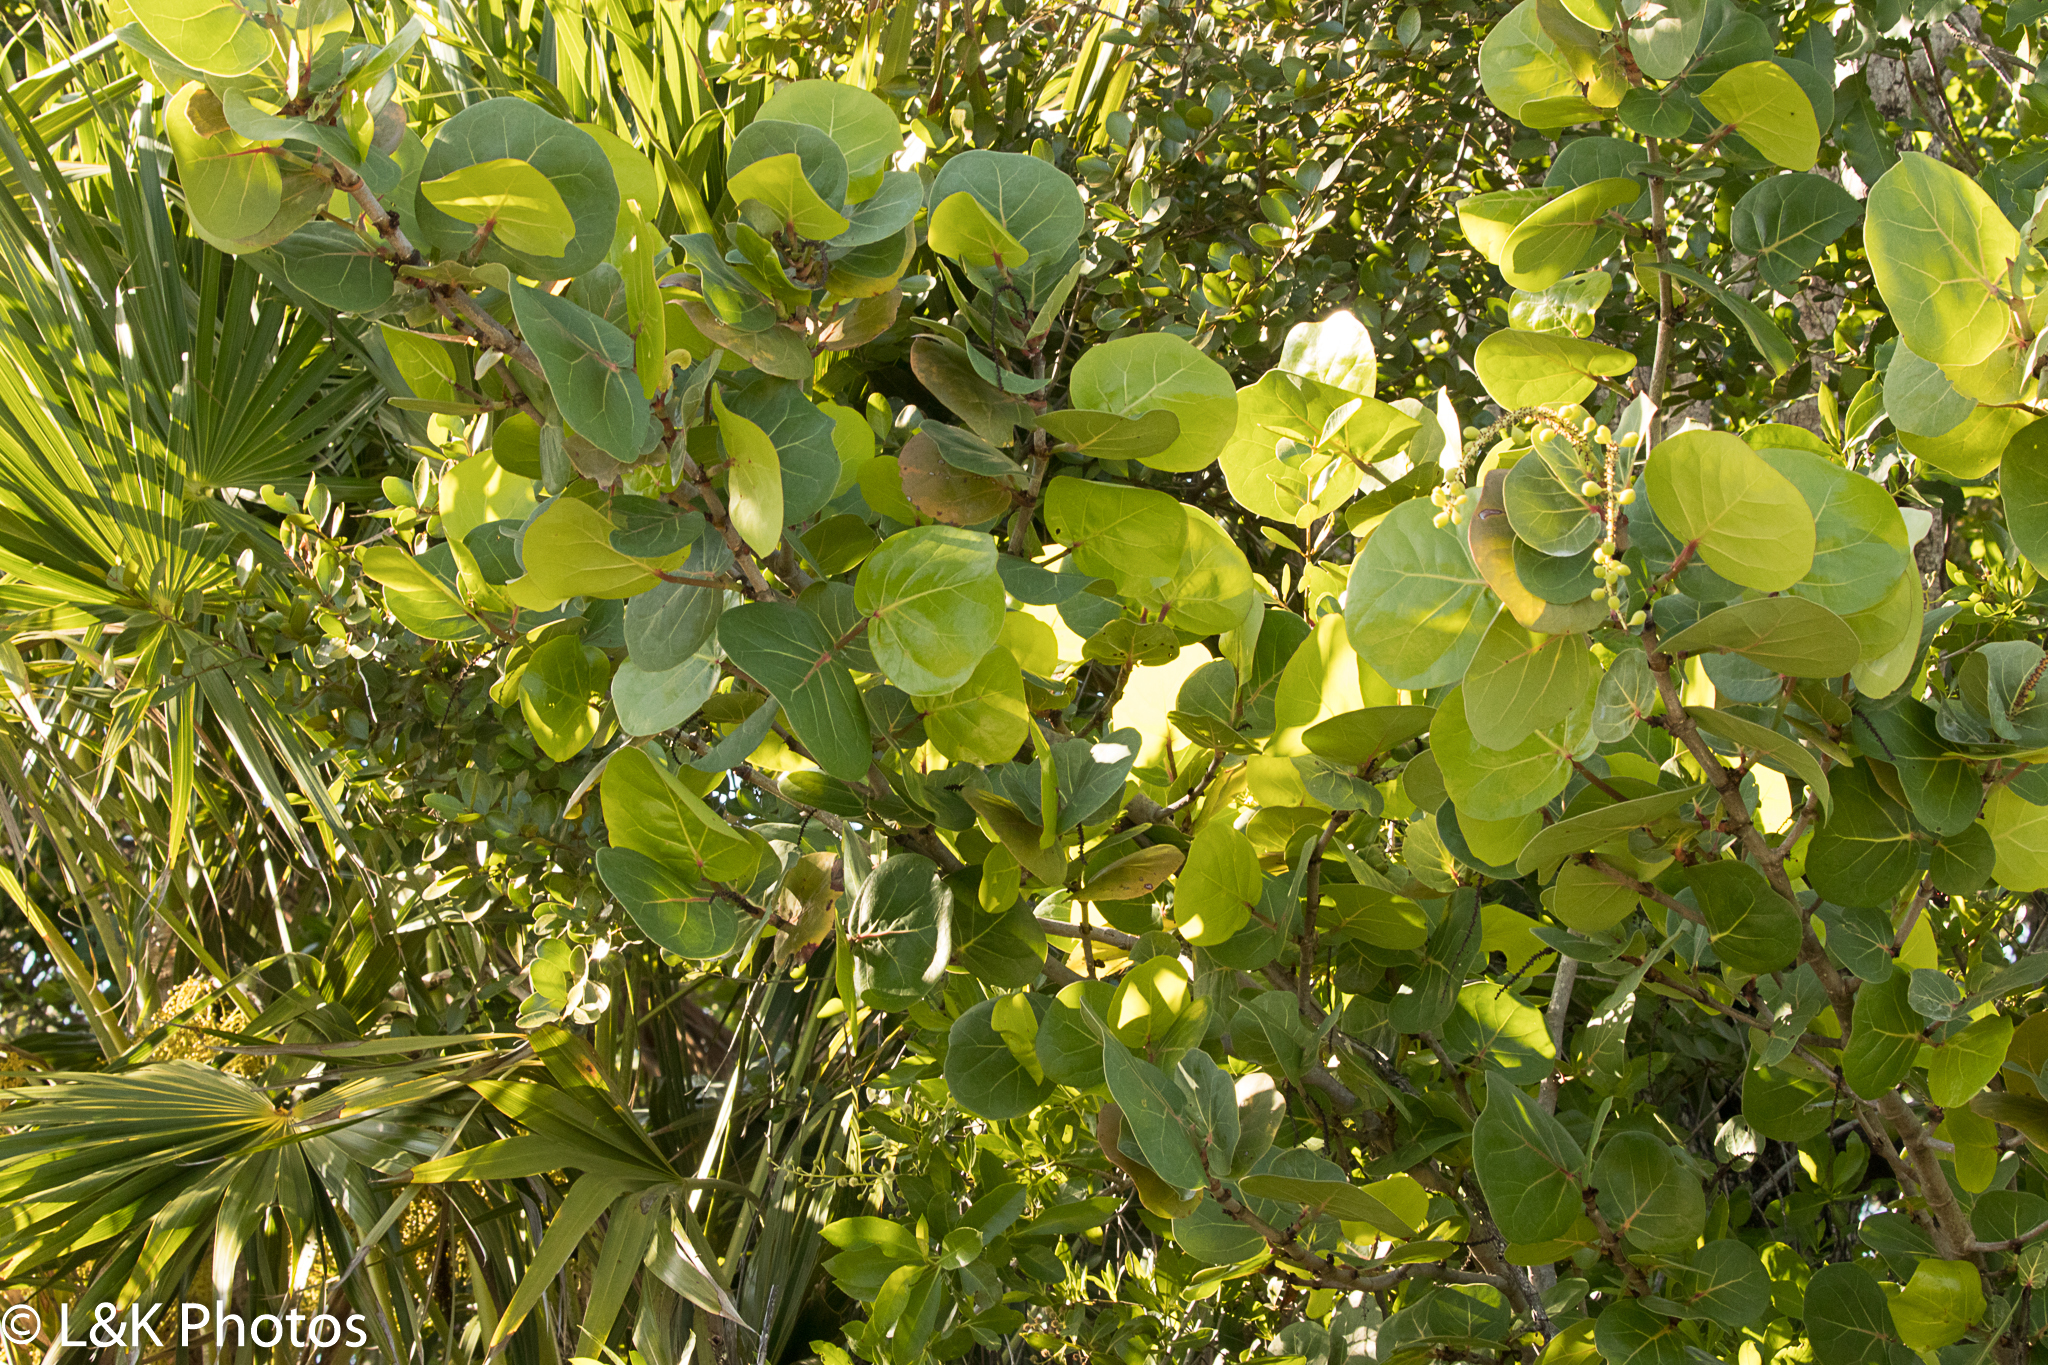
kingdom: Plantae
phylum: Tracheophyta
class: Magnoliopsida
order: Caryophyllales
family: Polygonaceae
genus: Coccoloba
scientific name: Coccoloba uvifera
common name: Seagrape
